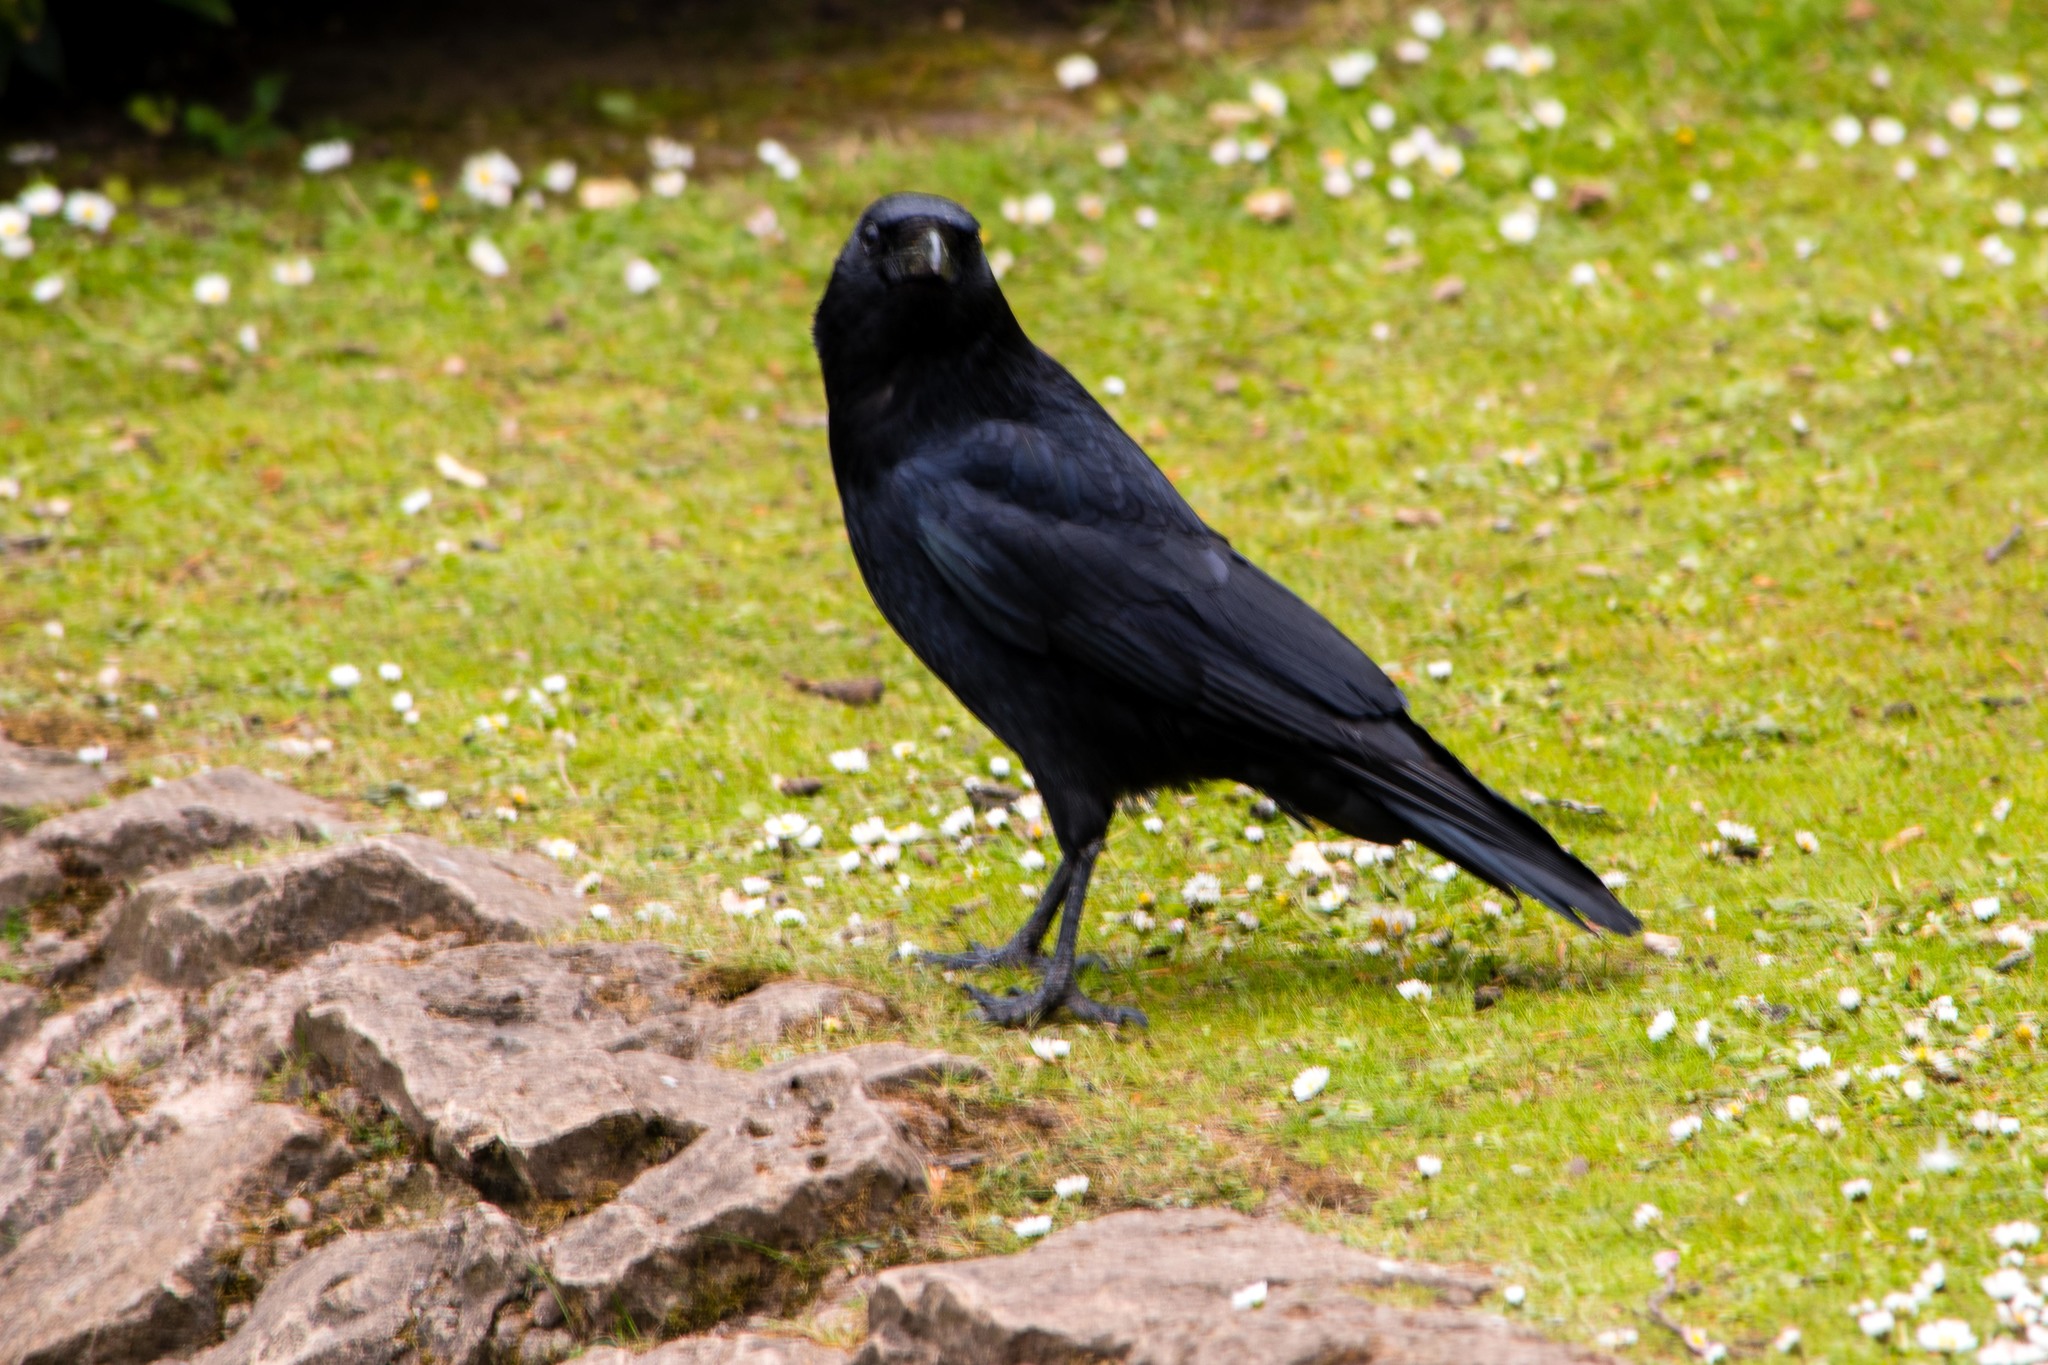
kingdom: Animalia
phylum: Chordata
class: Aves
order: Passeriformes
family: Corvidae
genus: Corvus
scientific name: Corvus corone
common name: Carrion crow
